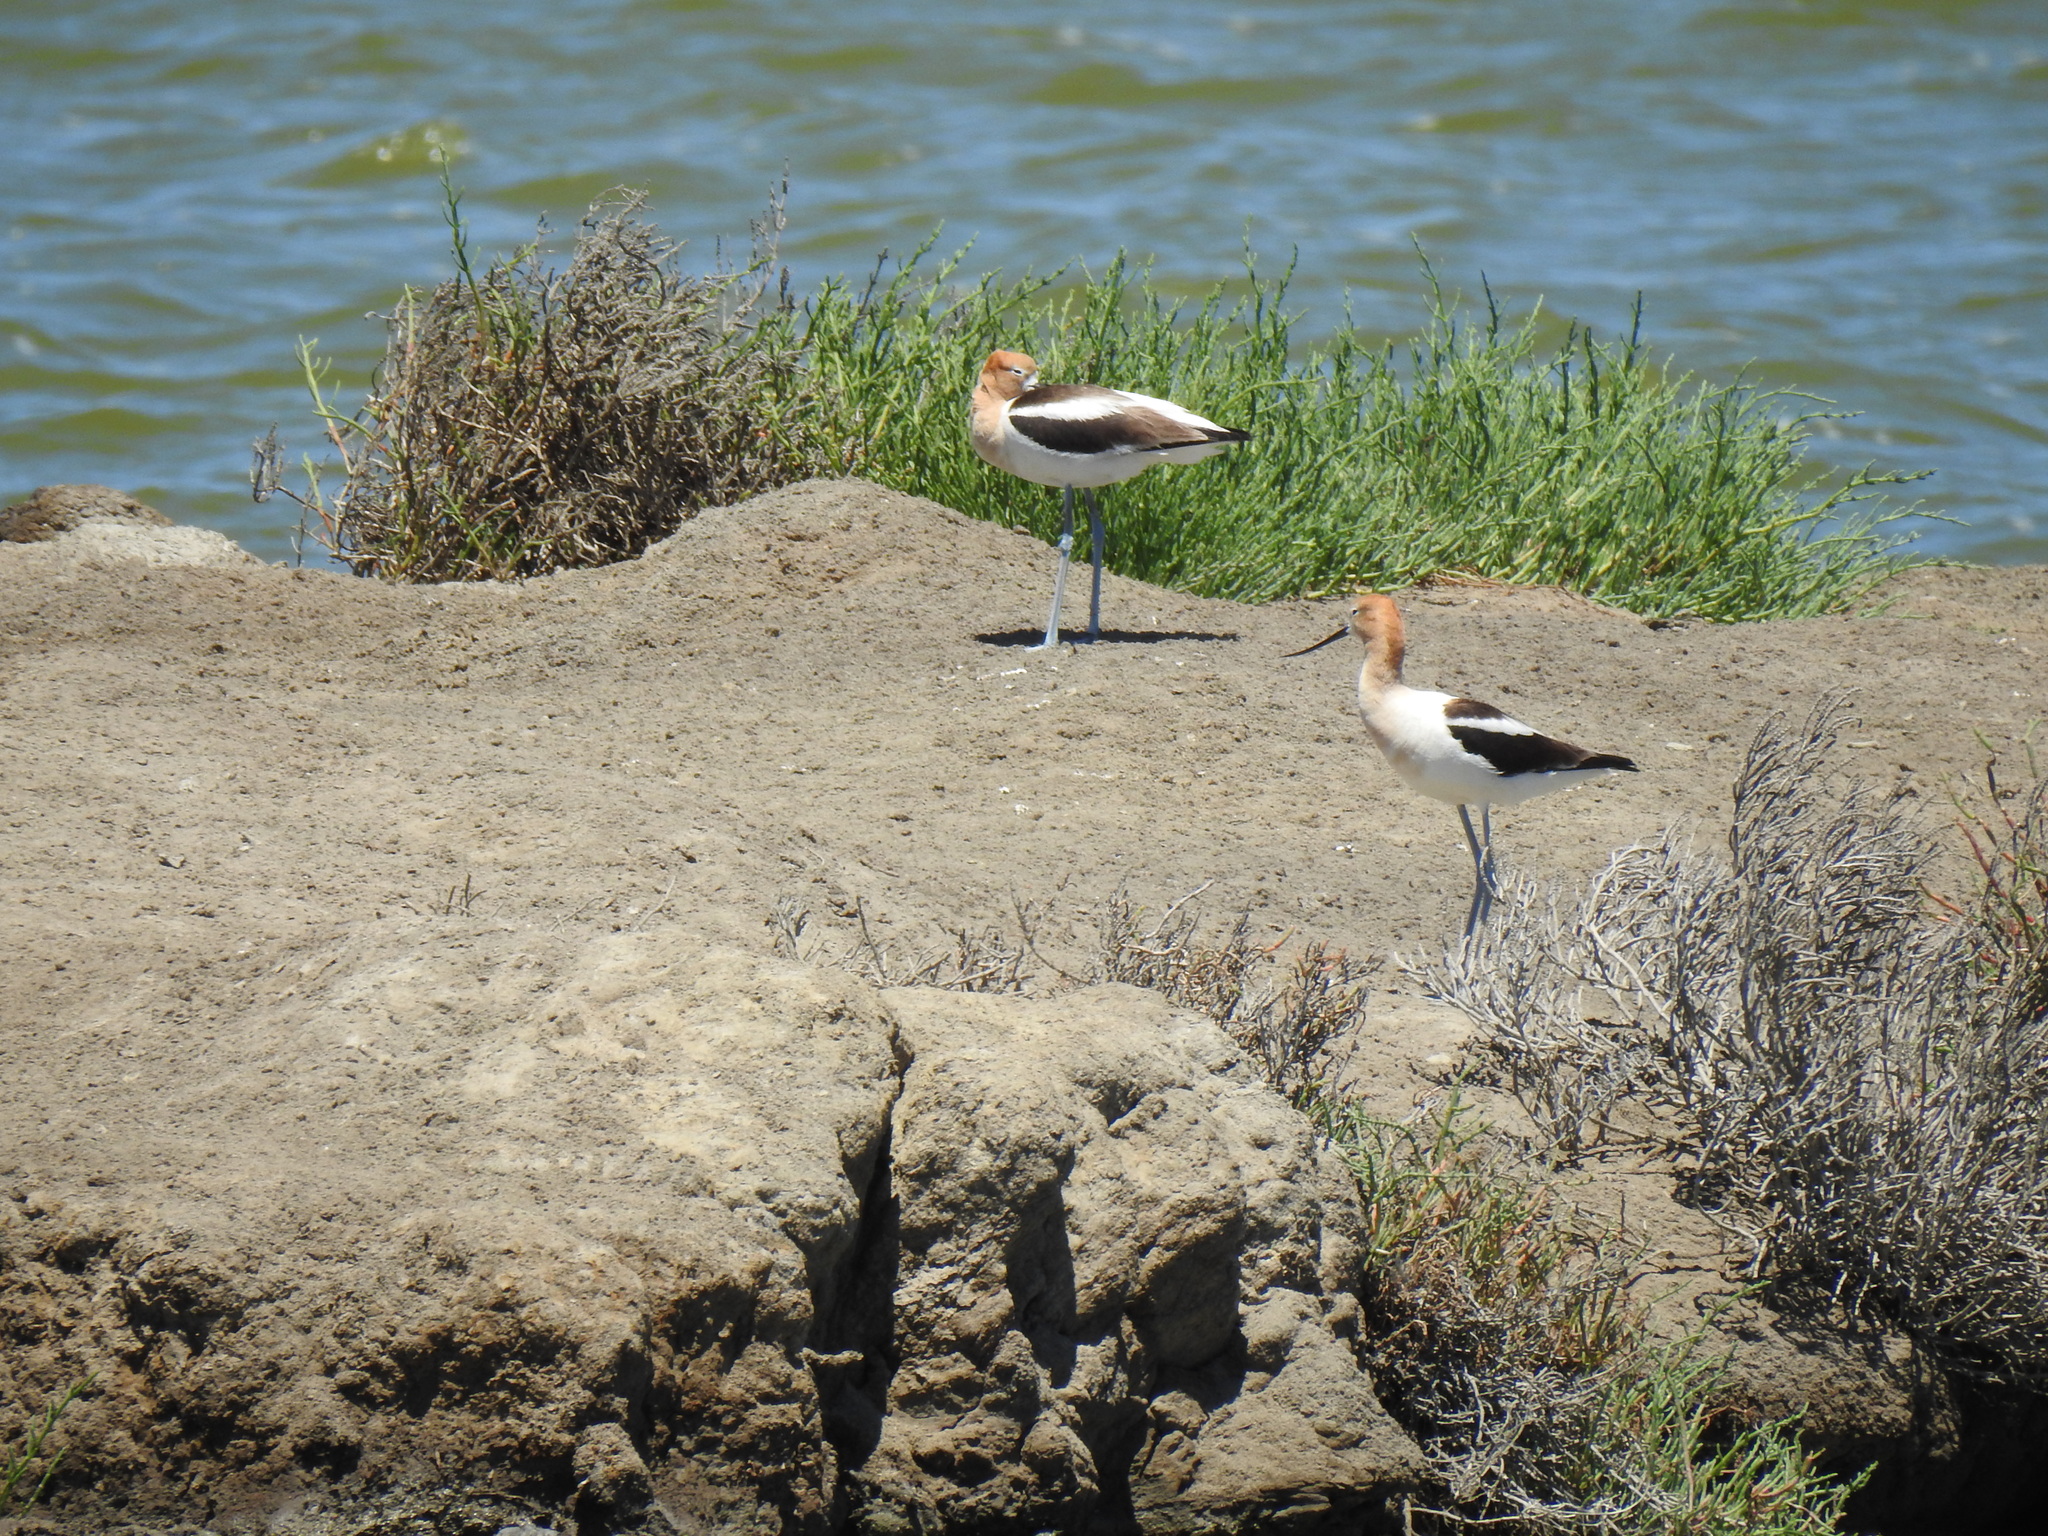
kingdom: Animalia
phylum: Chordata
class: Aves
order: Charadriiformes
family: Recurvirostridae
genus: Recurvirostra
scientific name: Recurvirostra americana
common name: American avocet
